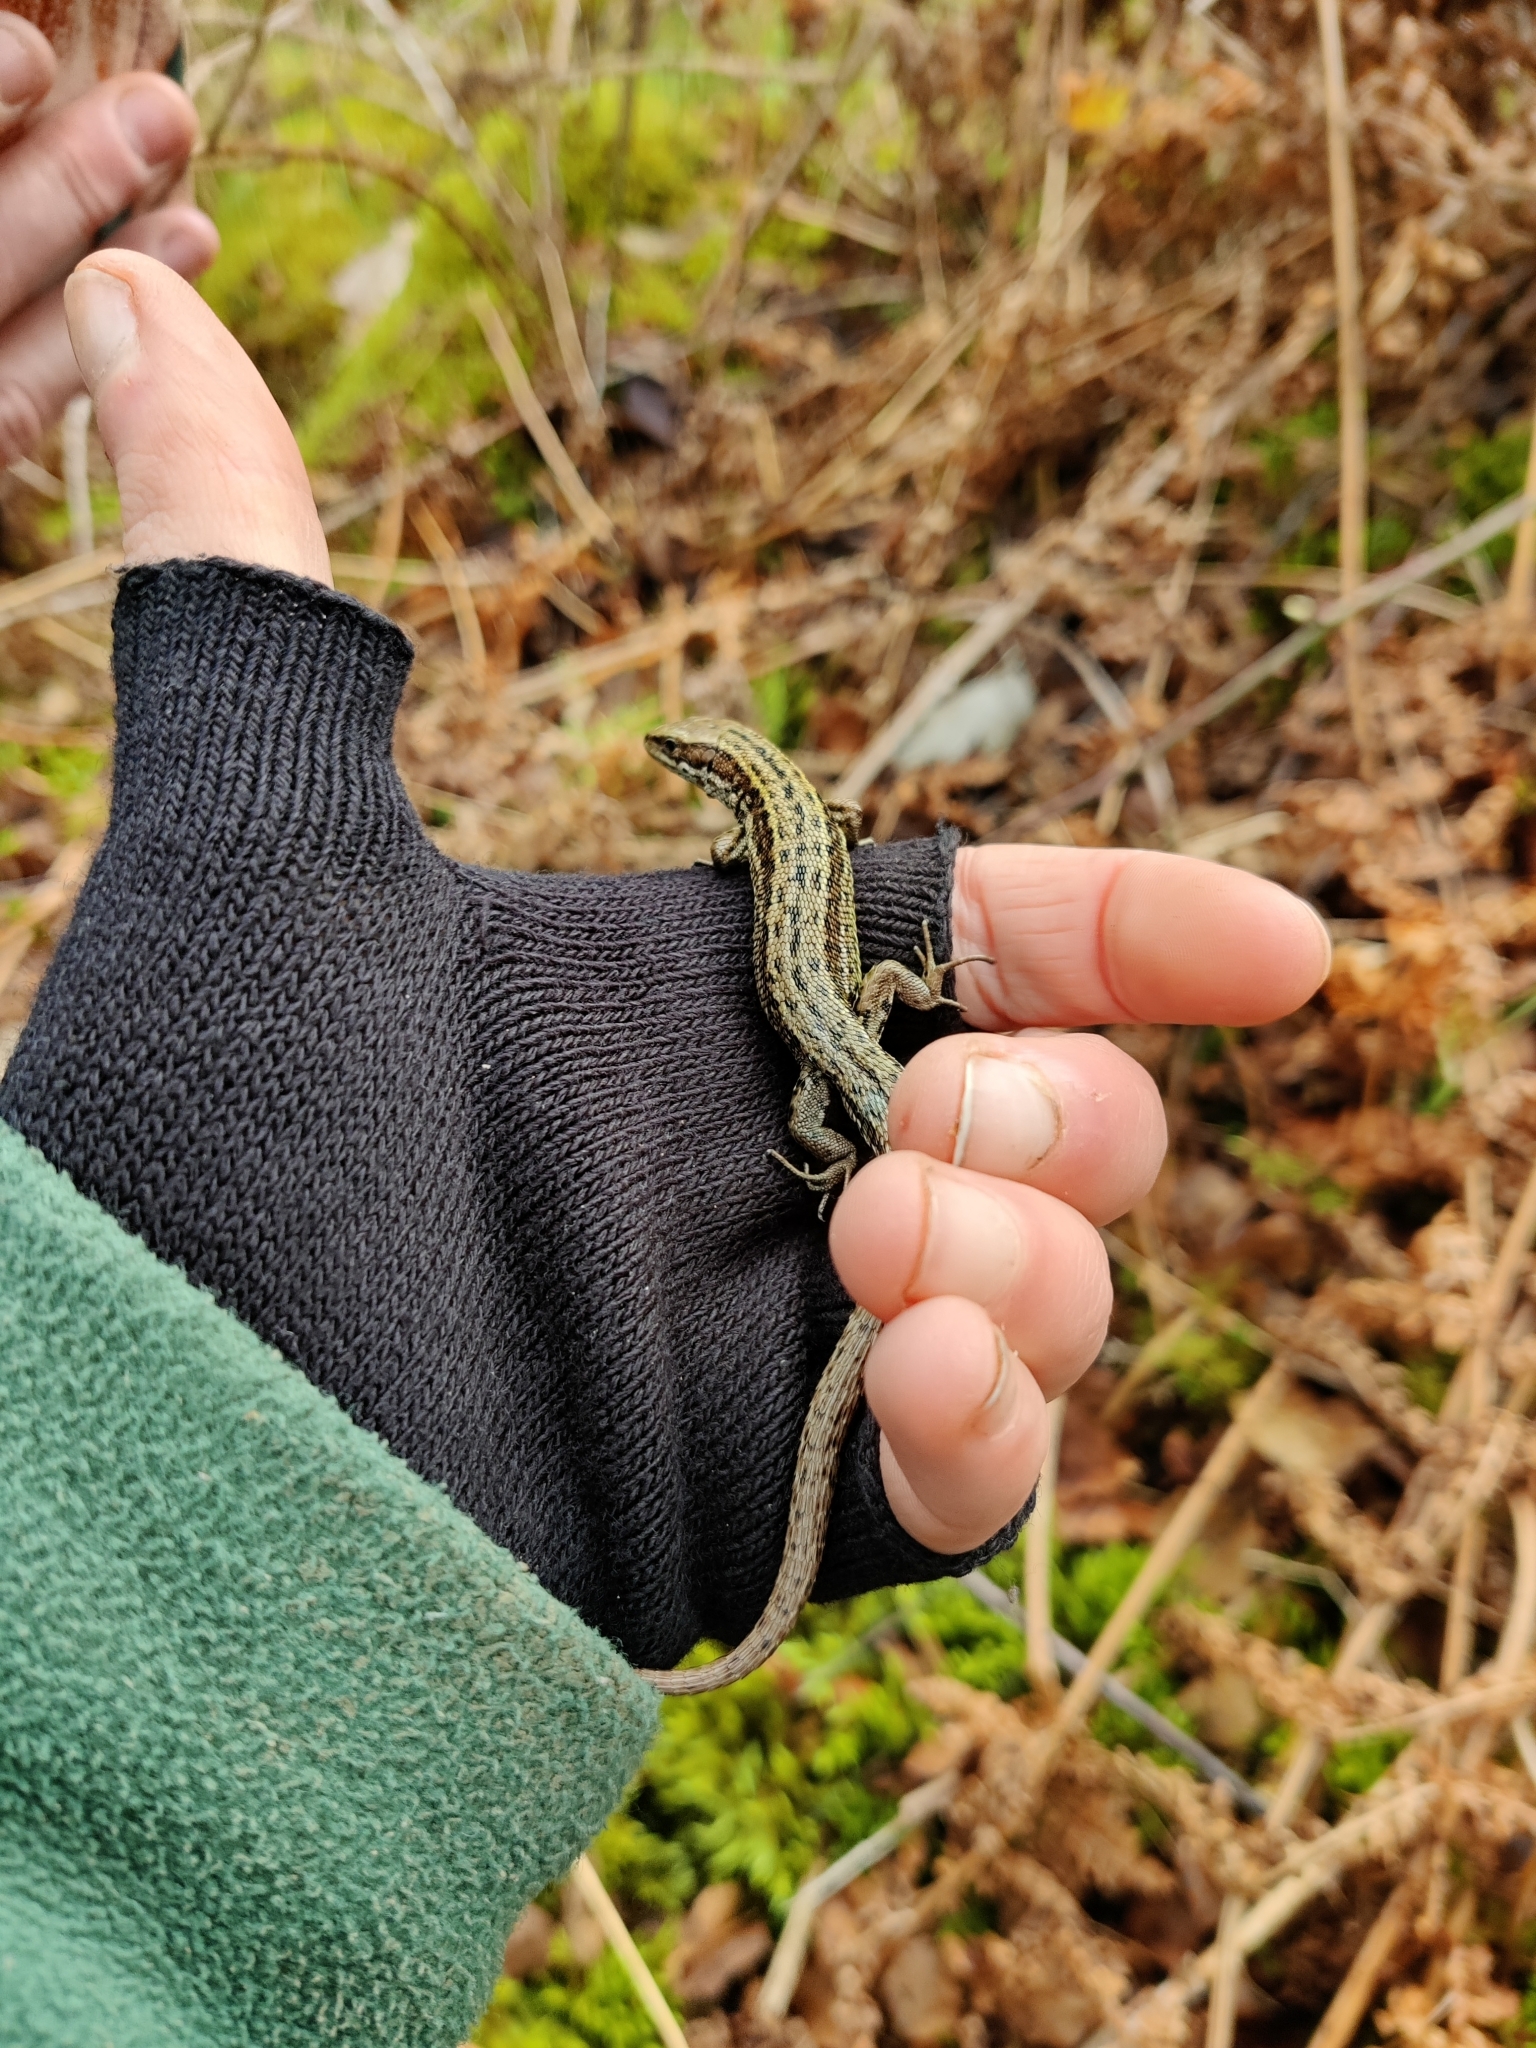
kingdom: Animalia
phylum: Chordata
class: Squamata
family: Lacertidae
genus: Zootoca
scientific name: Zootoca vivipara
